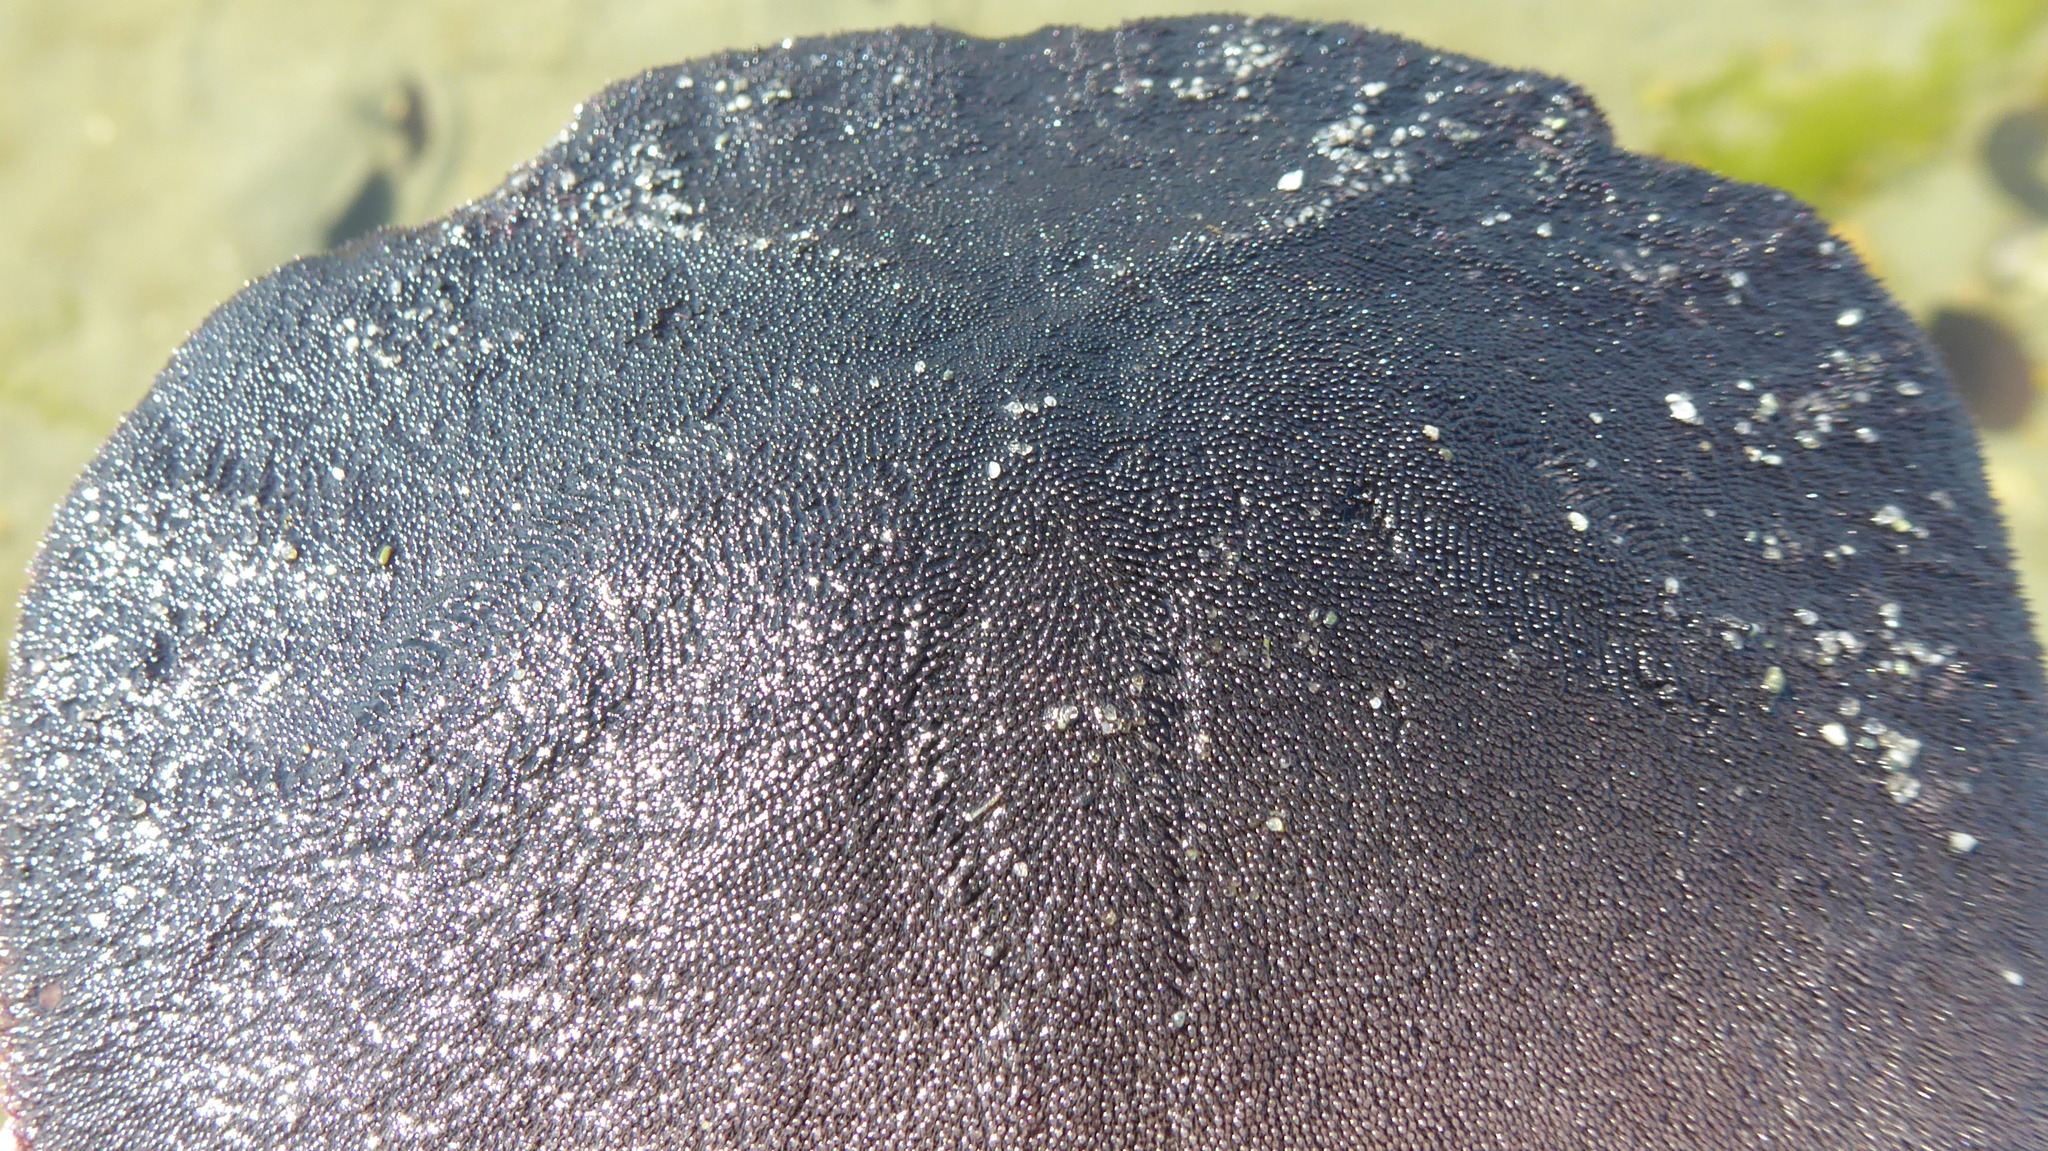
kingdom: Animalia
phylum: Echinodermata
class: Echinoidea
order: Echinolampadacea
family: Dendrasteridae
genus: Dendraster
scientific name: Dendraster excentricus
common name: Eccentric sand dollar sea urchin
